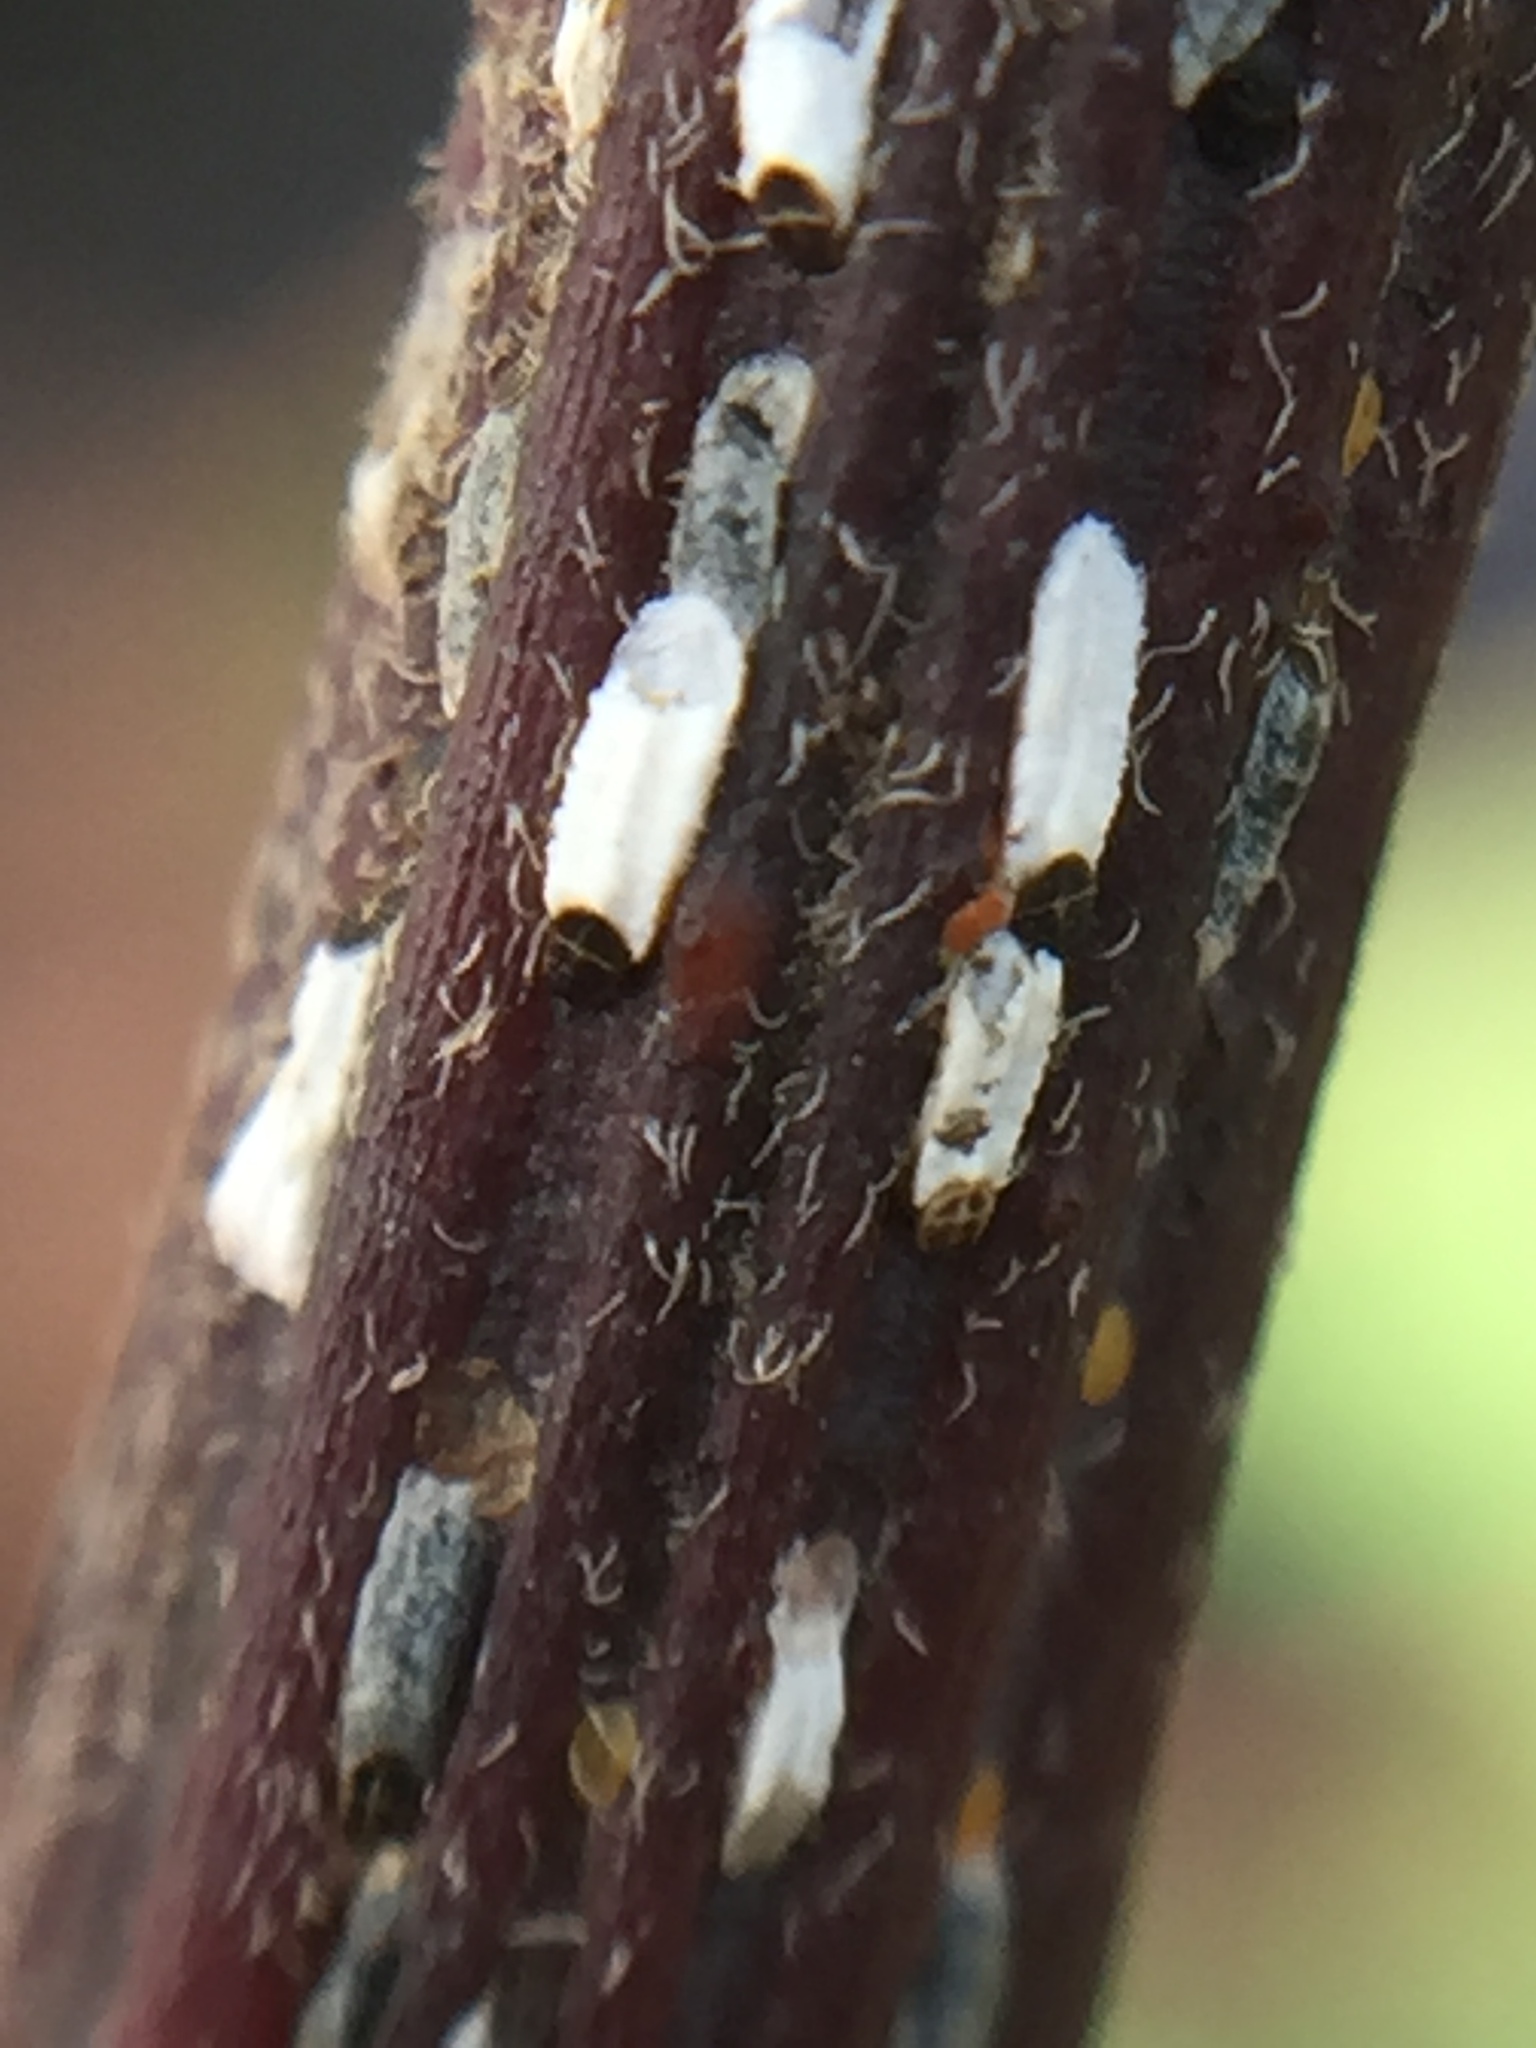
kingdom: Animalia
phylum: Arthropoda
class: Insecta
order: Hemiptera
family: Diaspididae
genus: Trullifiorinia
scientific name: Trullifiorinia acaciae
